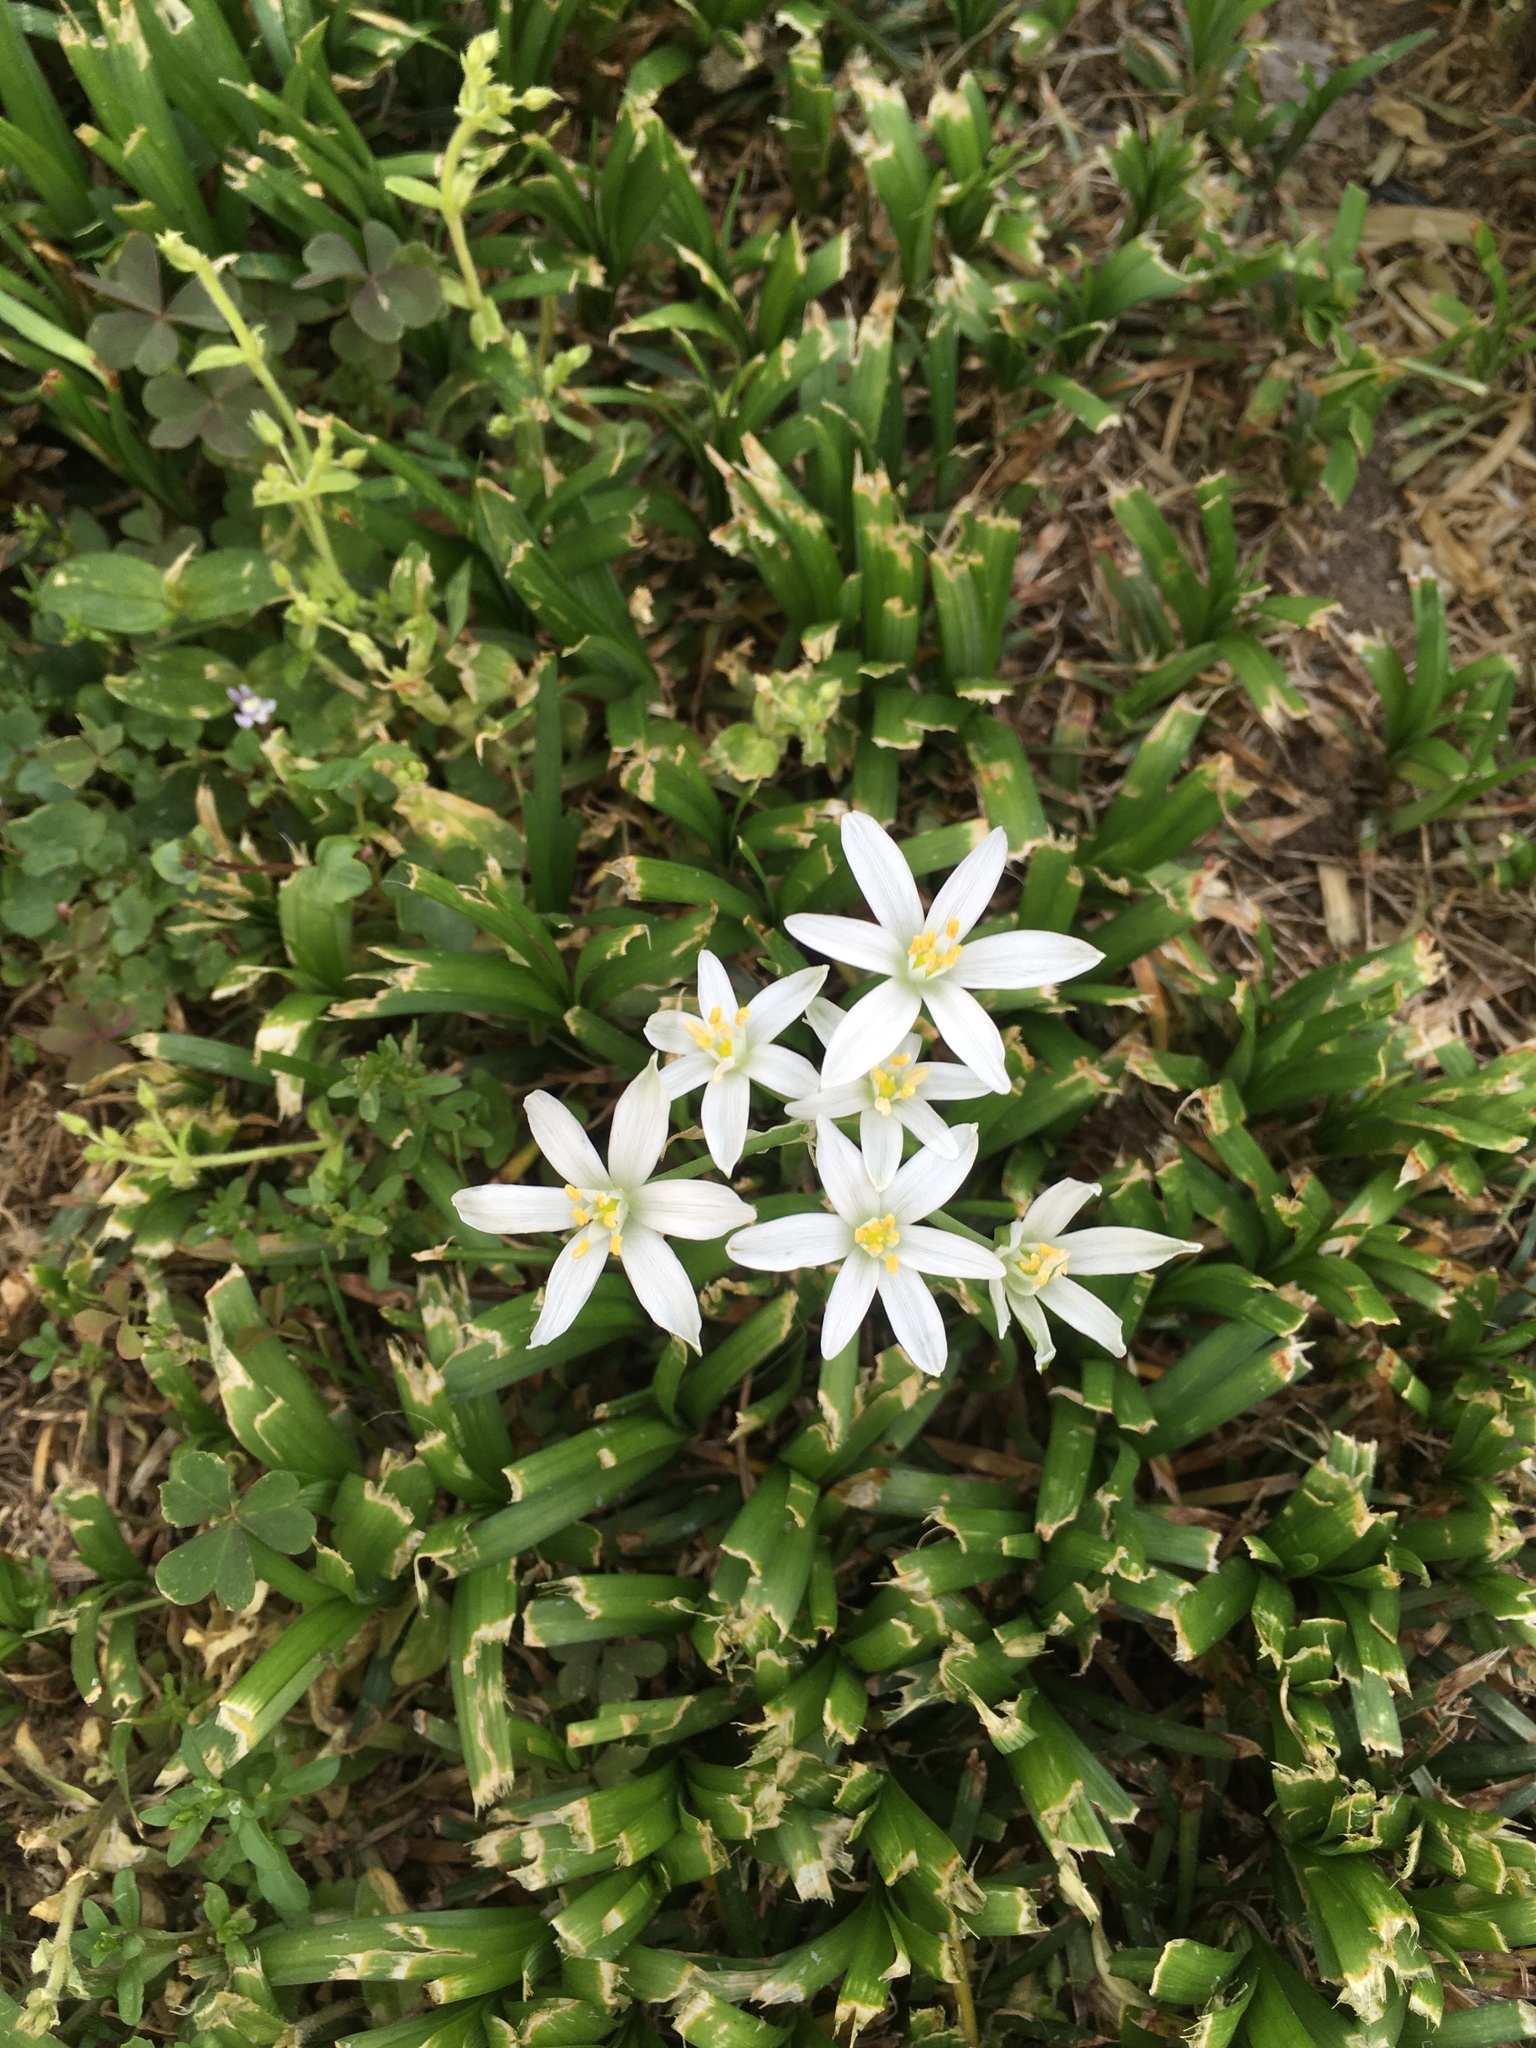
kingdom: Plantae
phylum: Tracheophyta
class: Liliopsida
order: Asparagales
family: Asparagaceae
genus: Ornithogalum
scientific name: Ornithogalum umbellatum
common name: Garden star-of-bethlehem
